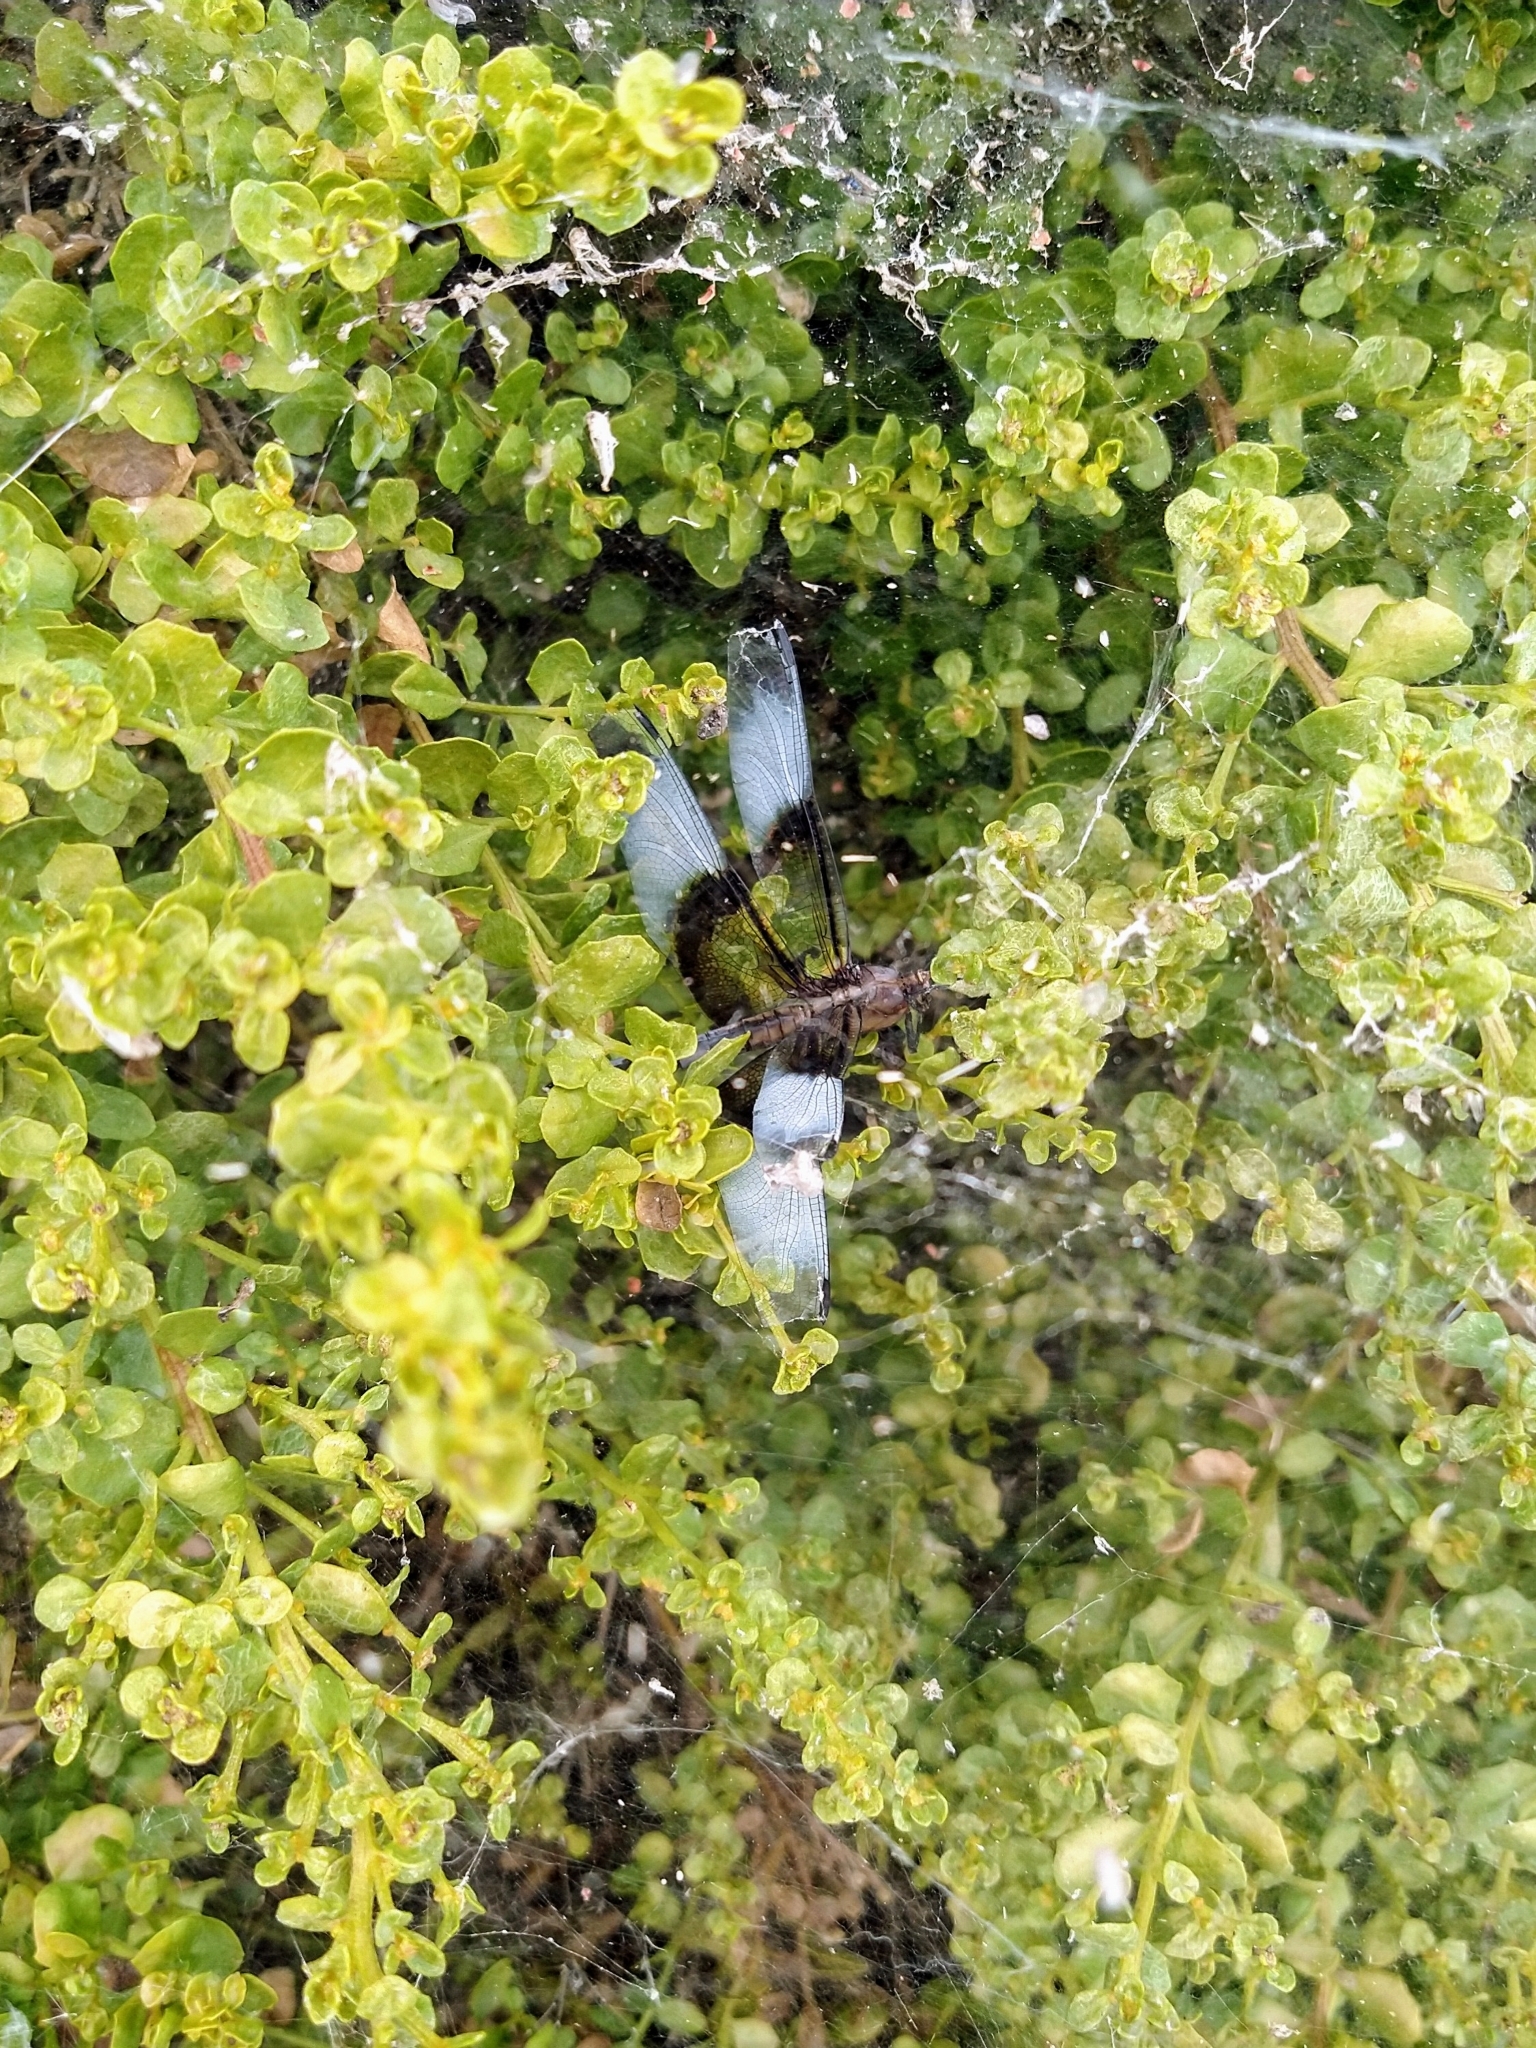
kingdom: Animalia
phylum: Arthropoda
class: Insecta
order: Odonata
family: Libellulidae
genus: Libellula
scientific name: Libellula luctuosa
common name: Widow skimmer
